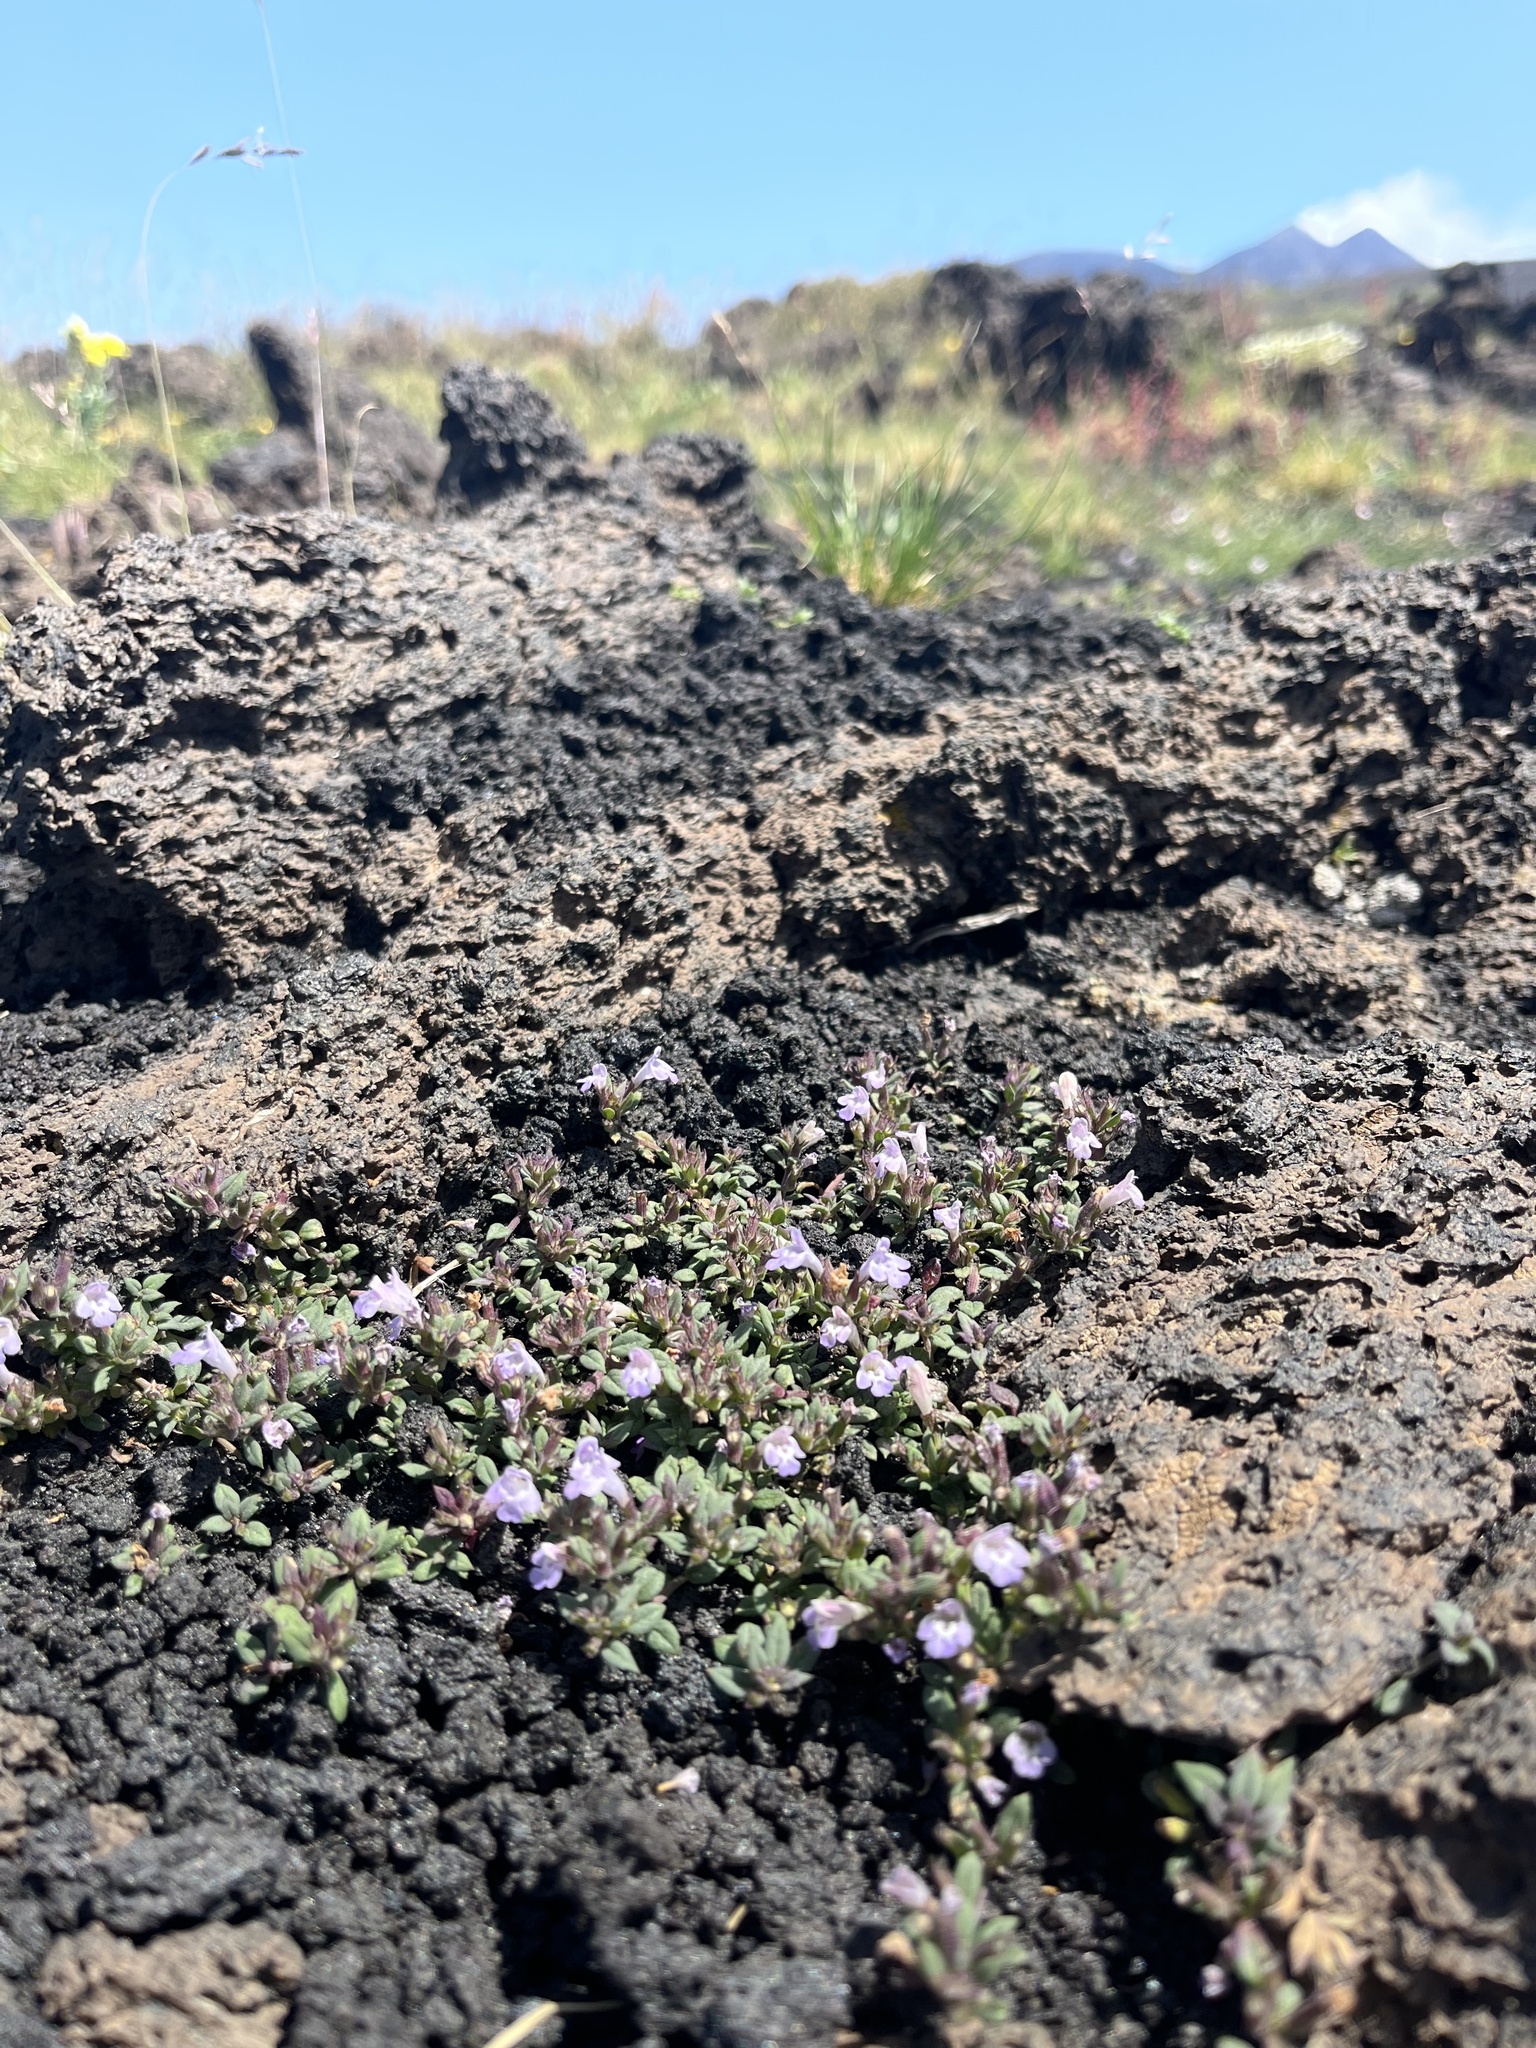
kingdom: Plantae
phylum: Tracheophyta
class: Magnoliopsida
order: Lamiales
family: Lamiaceae
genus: Clinopodium
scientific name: Clinopodium alpinum
